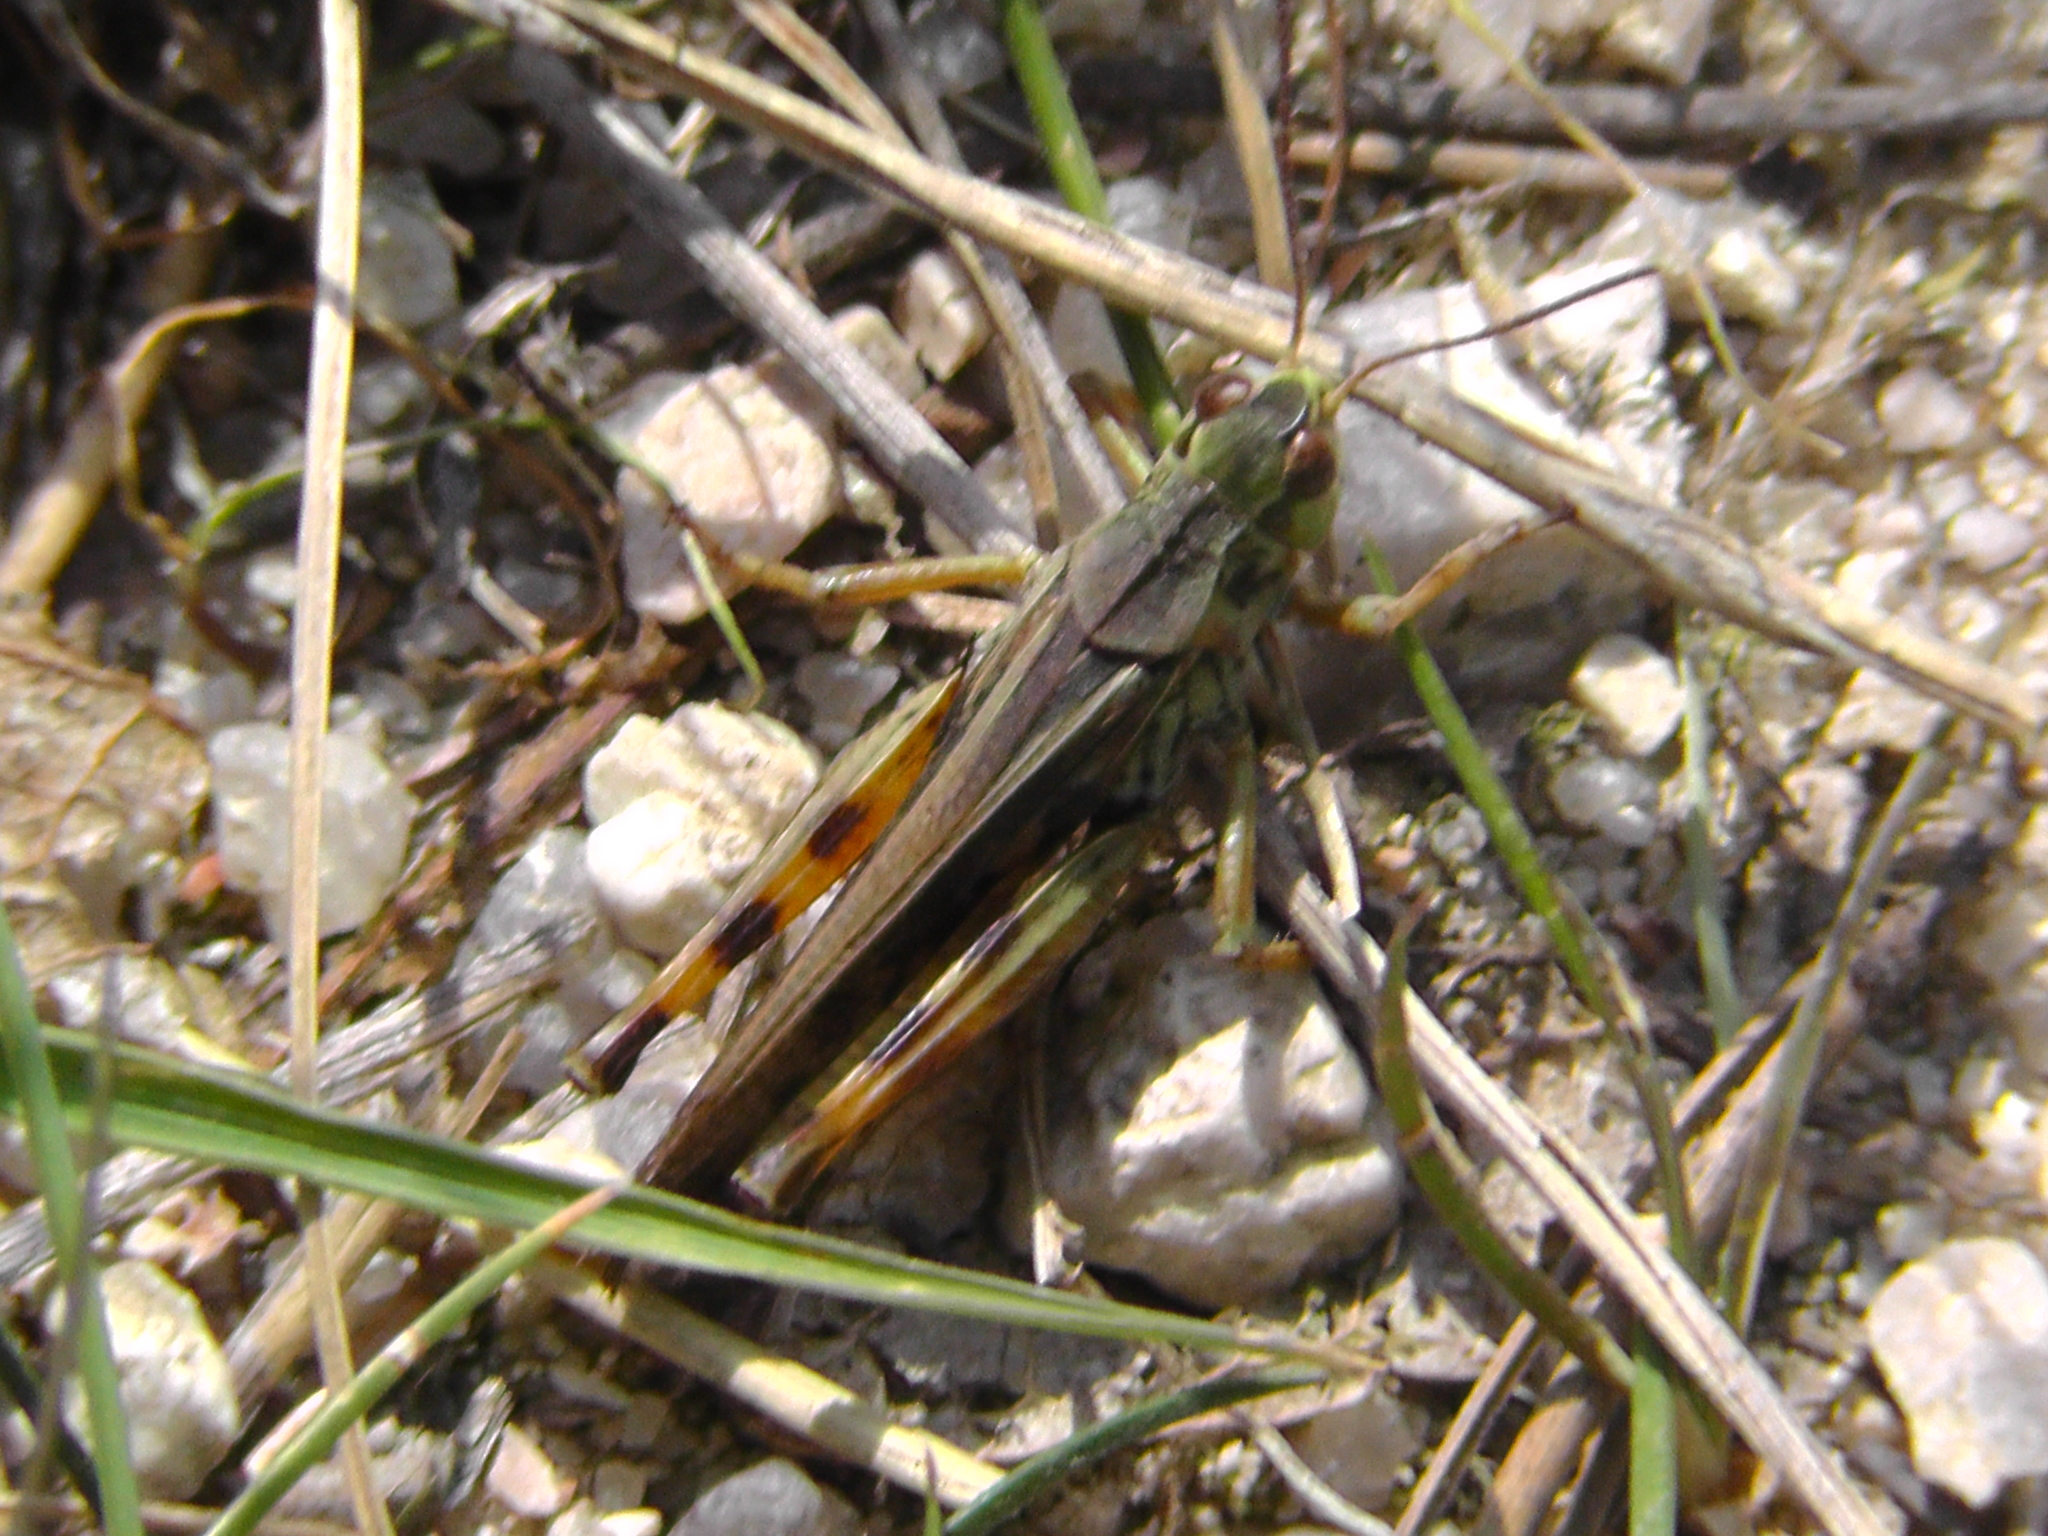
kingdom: Animalia
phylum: Arthropoda
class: Insecta
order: Orthoptera
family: Acrididae
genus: Camnula
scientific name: Camnula pellucida
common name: Clear-winged grasshopper
